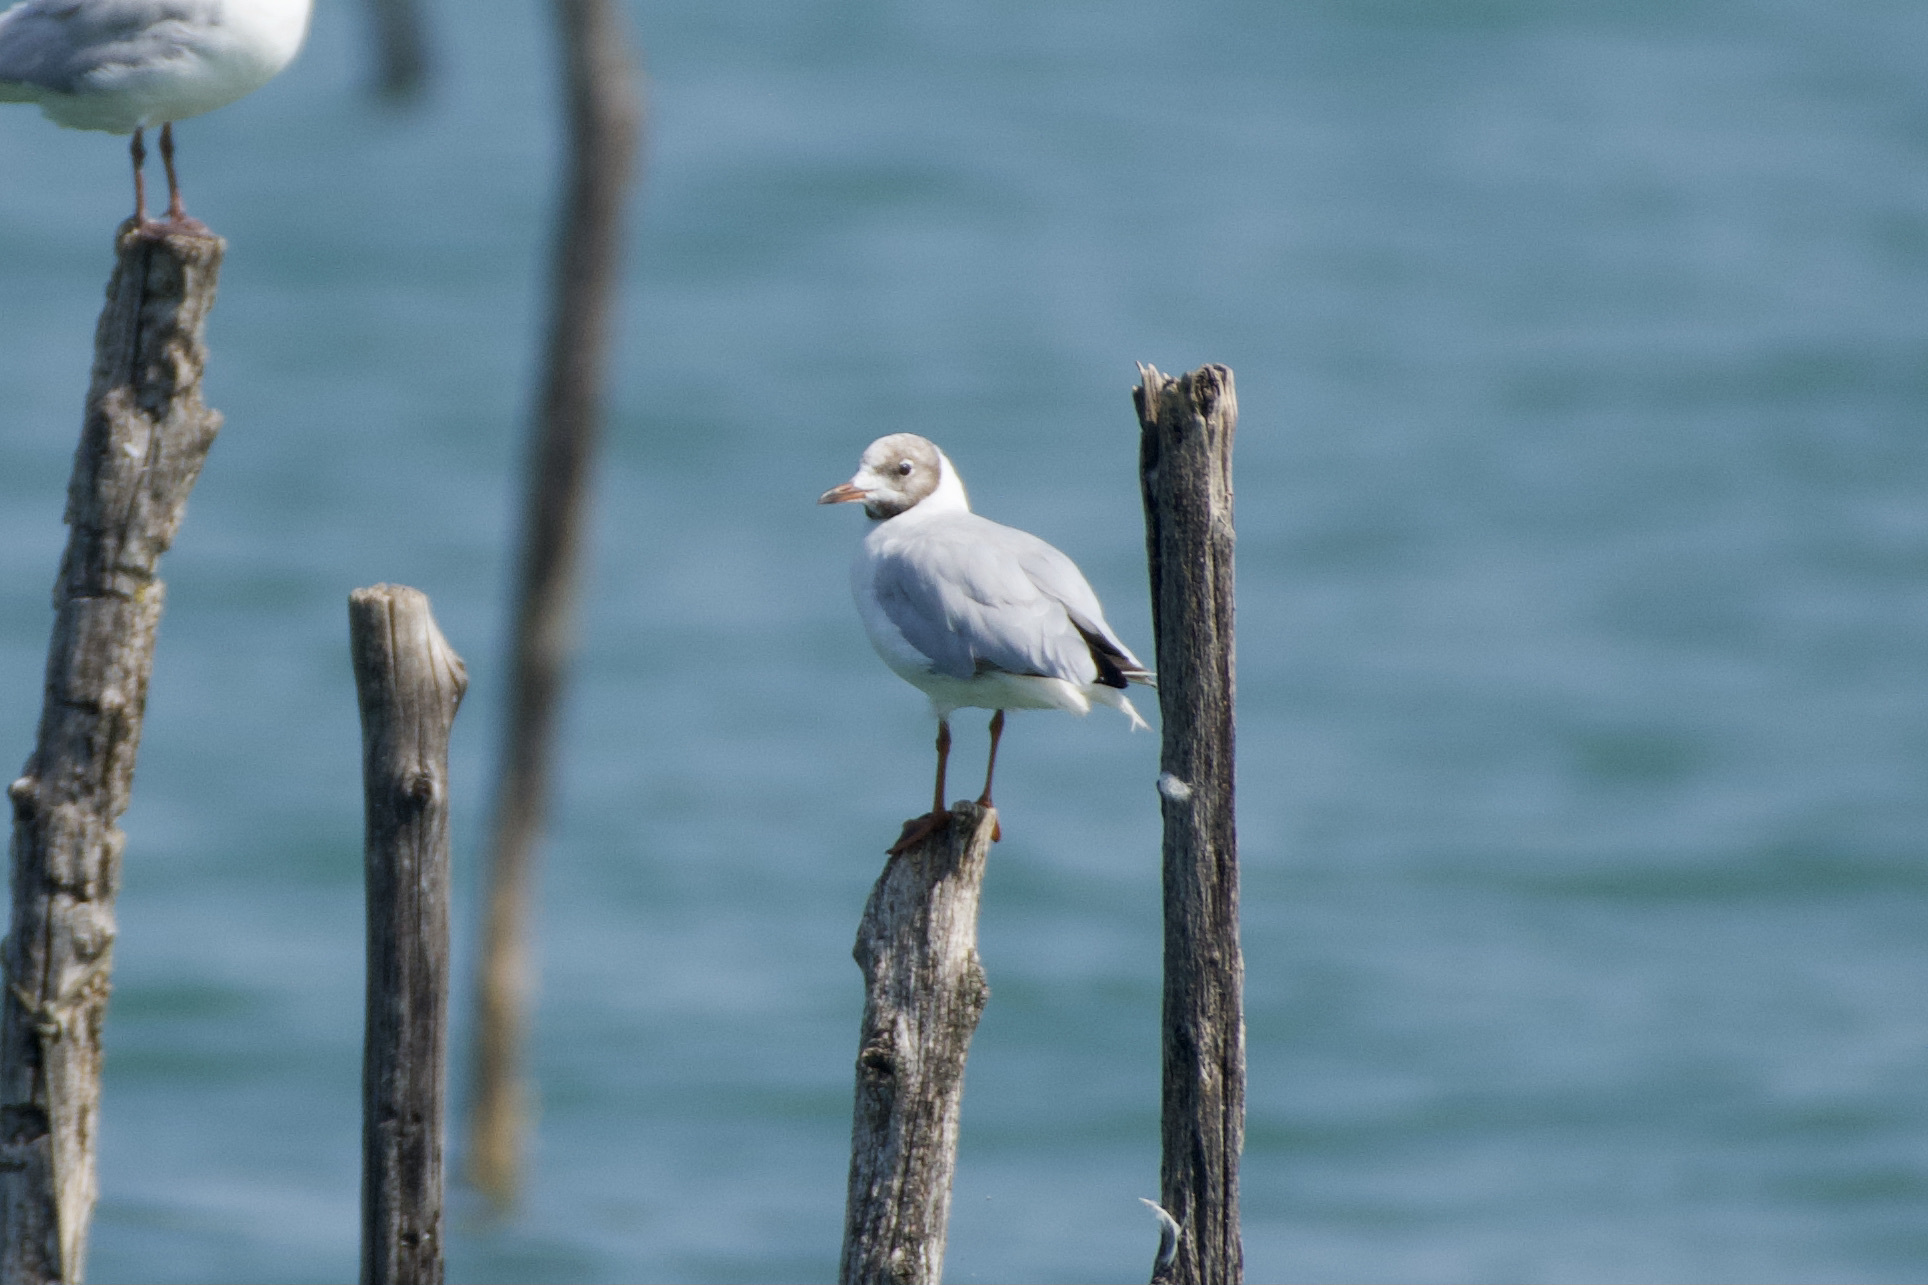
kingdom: Animalia
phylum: Chordata
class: Aves
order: Charadriiformes
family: Laridae
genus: Chroicocephalus
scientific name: Chroicocephalus ridibundus
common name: Black-headed gull
